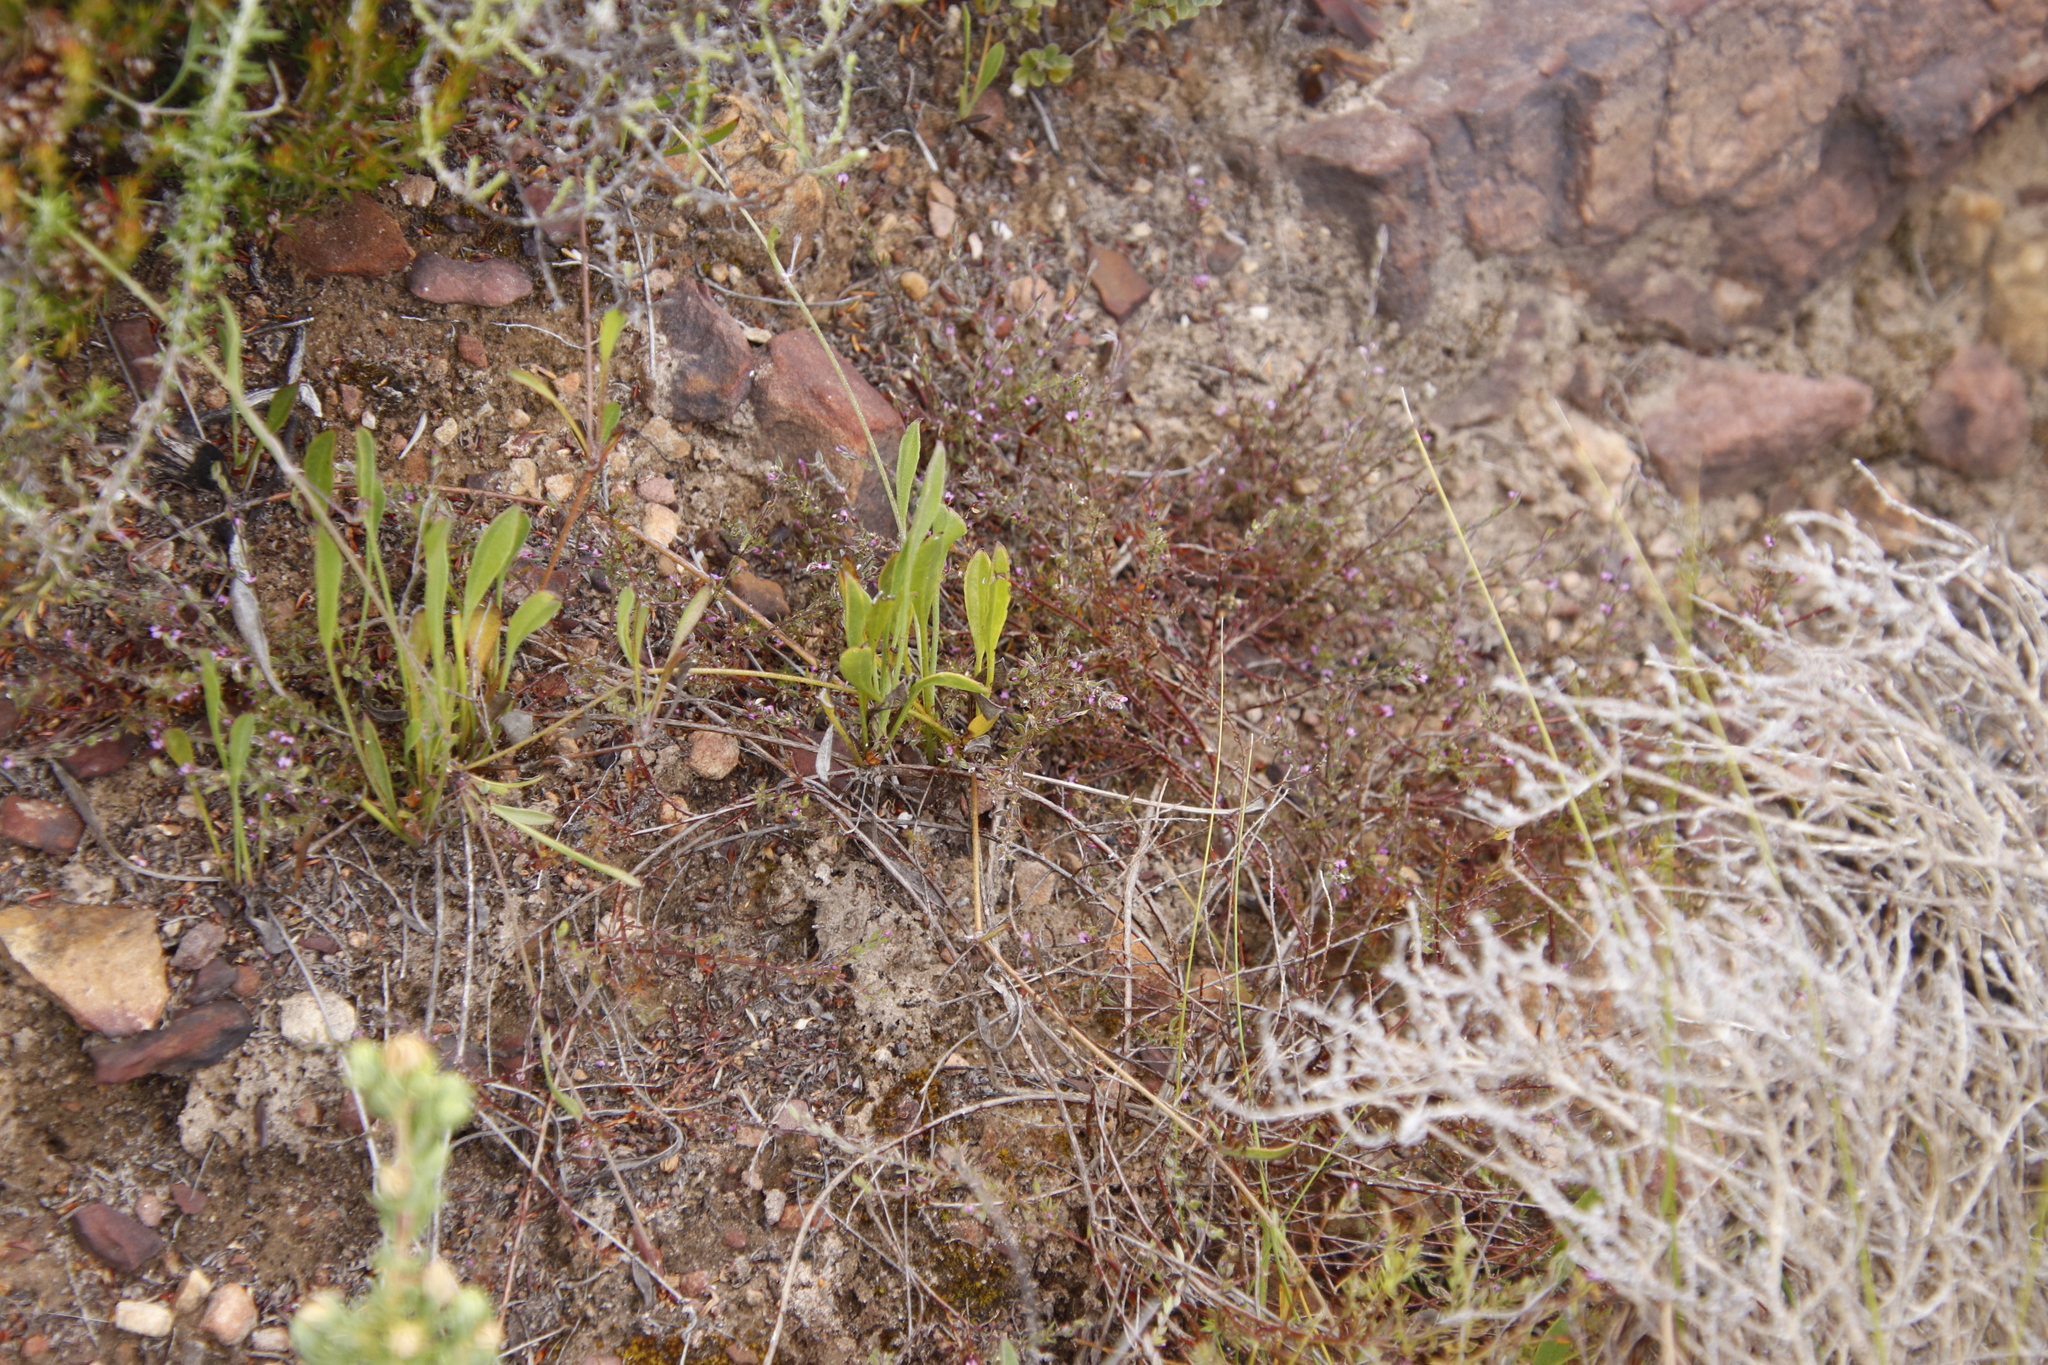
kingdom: Plantae
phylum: Tracheophyta
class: Magnoliopsida
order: Apiales
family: Apiaceae
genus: Centella
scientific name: Centella glabrata
